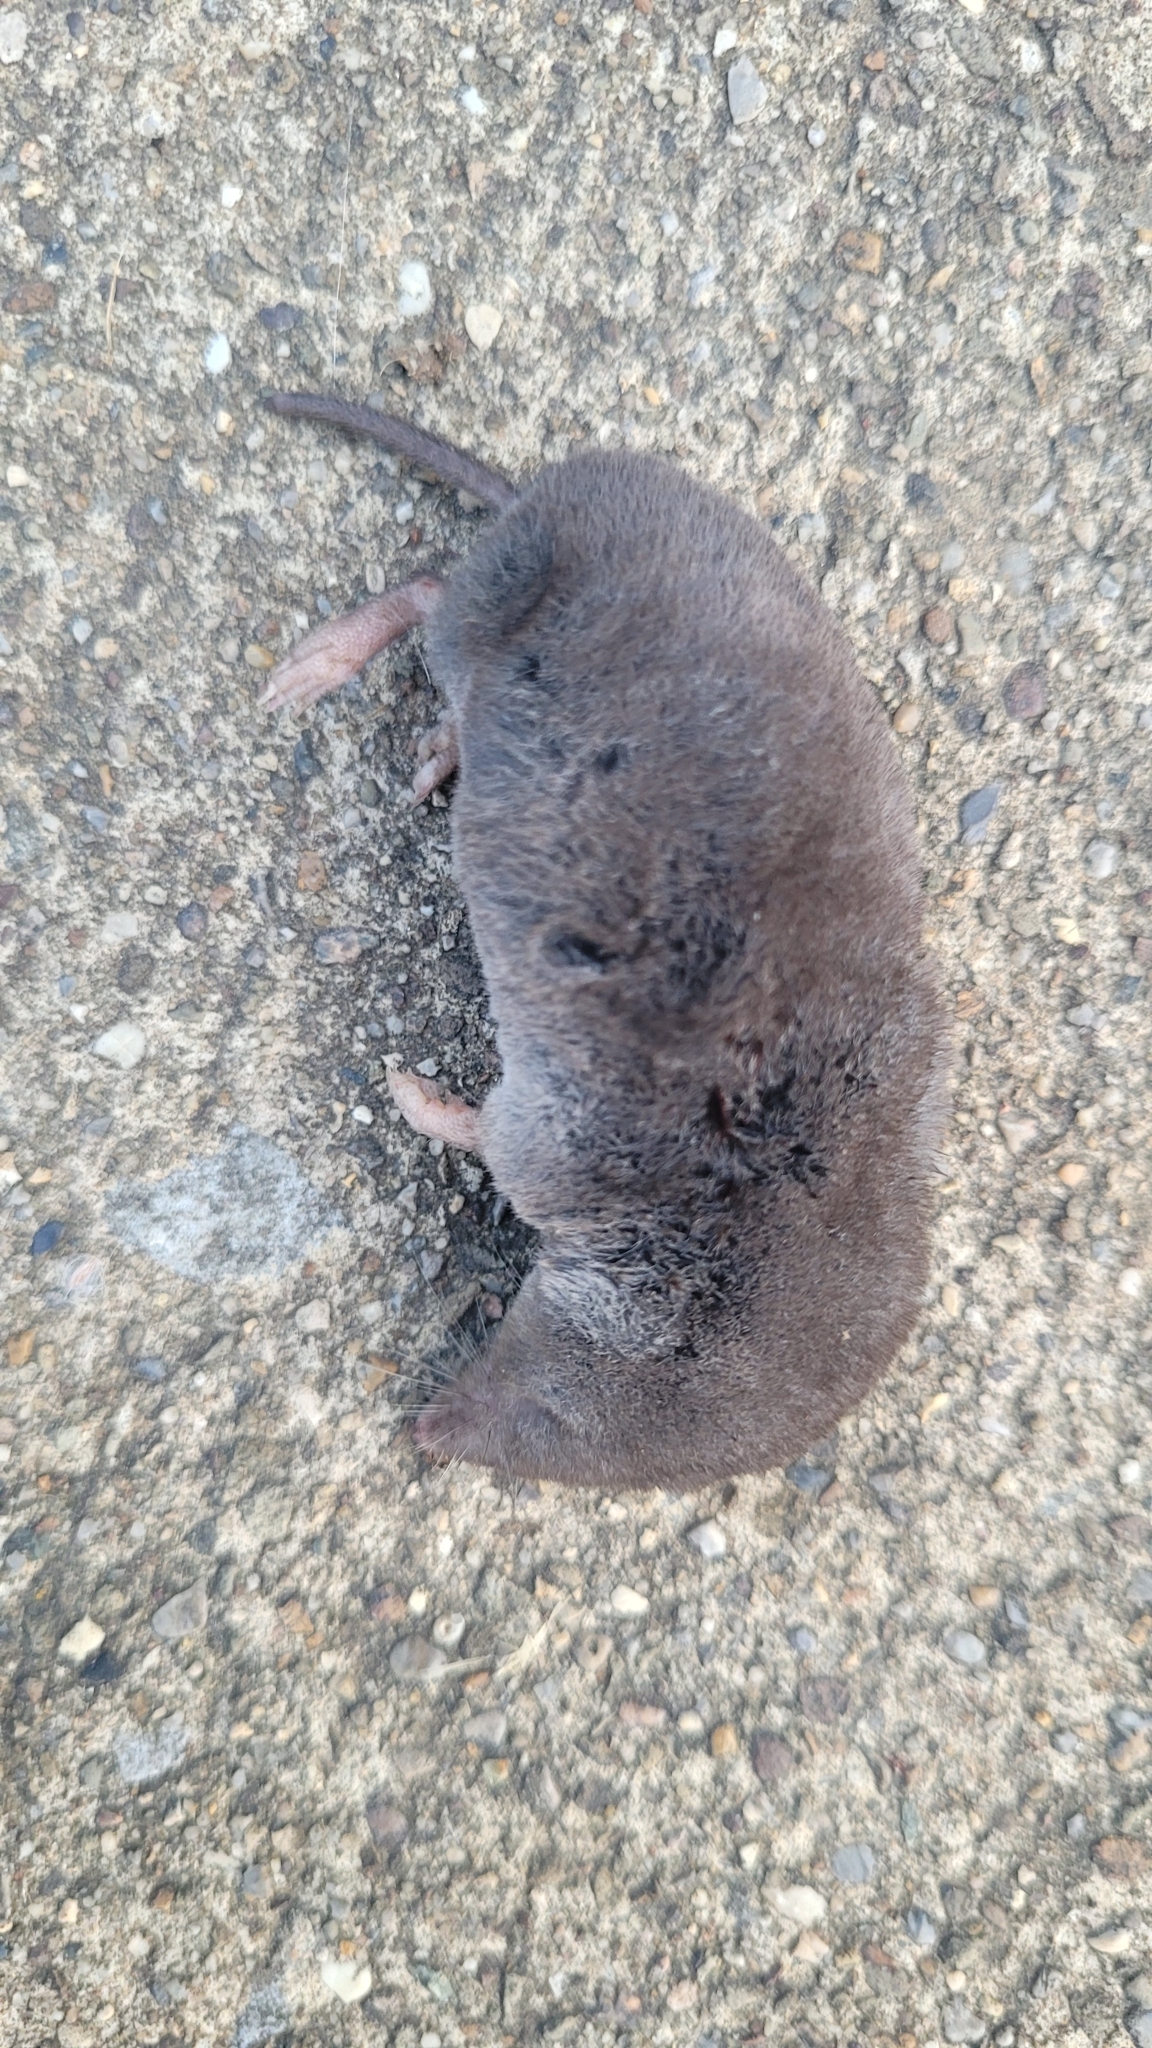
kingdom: Animalia
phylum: Chordata
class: Mammalia
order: Soricomorpha
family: Soricidae
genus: Blarina
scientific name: Blarina brevicauda
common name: Northern short-tailed shrew
